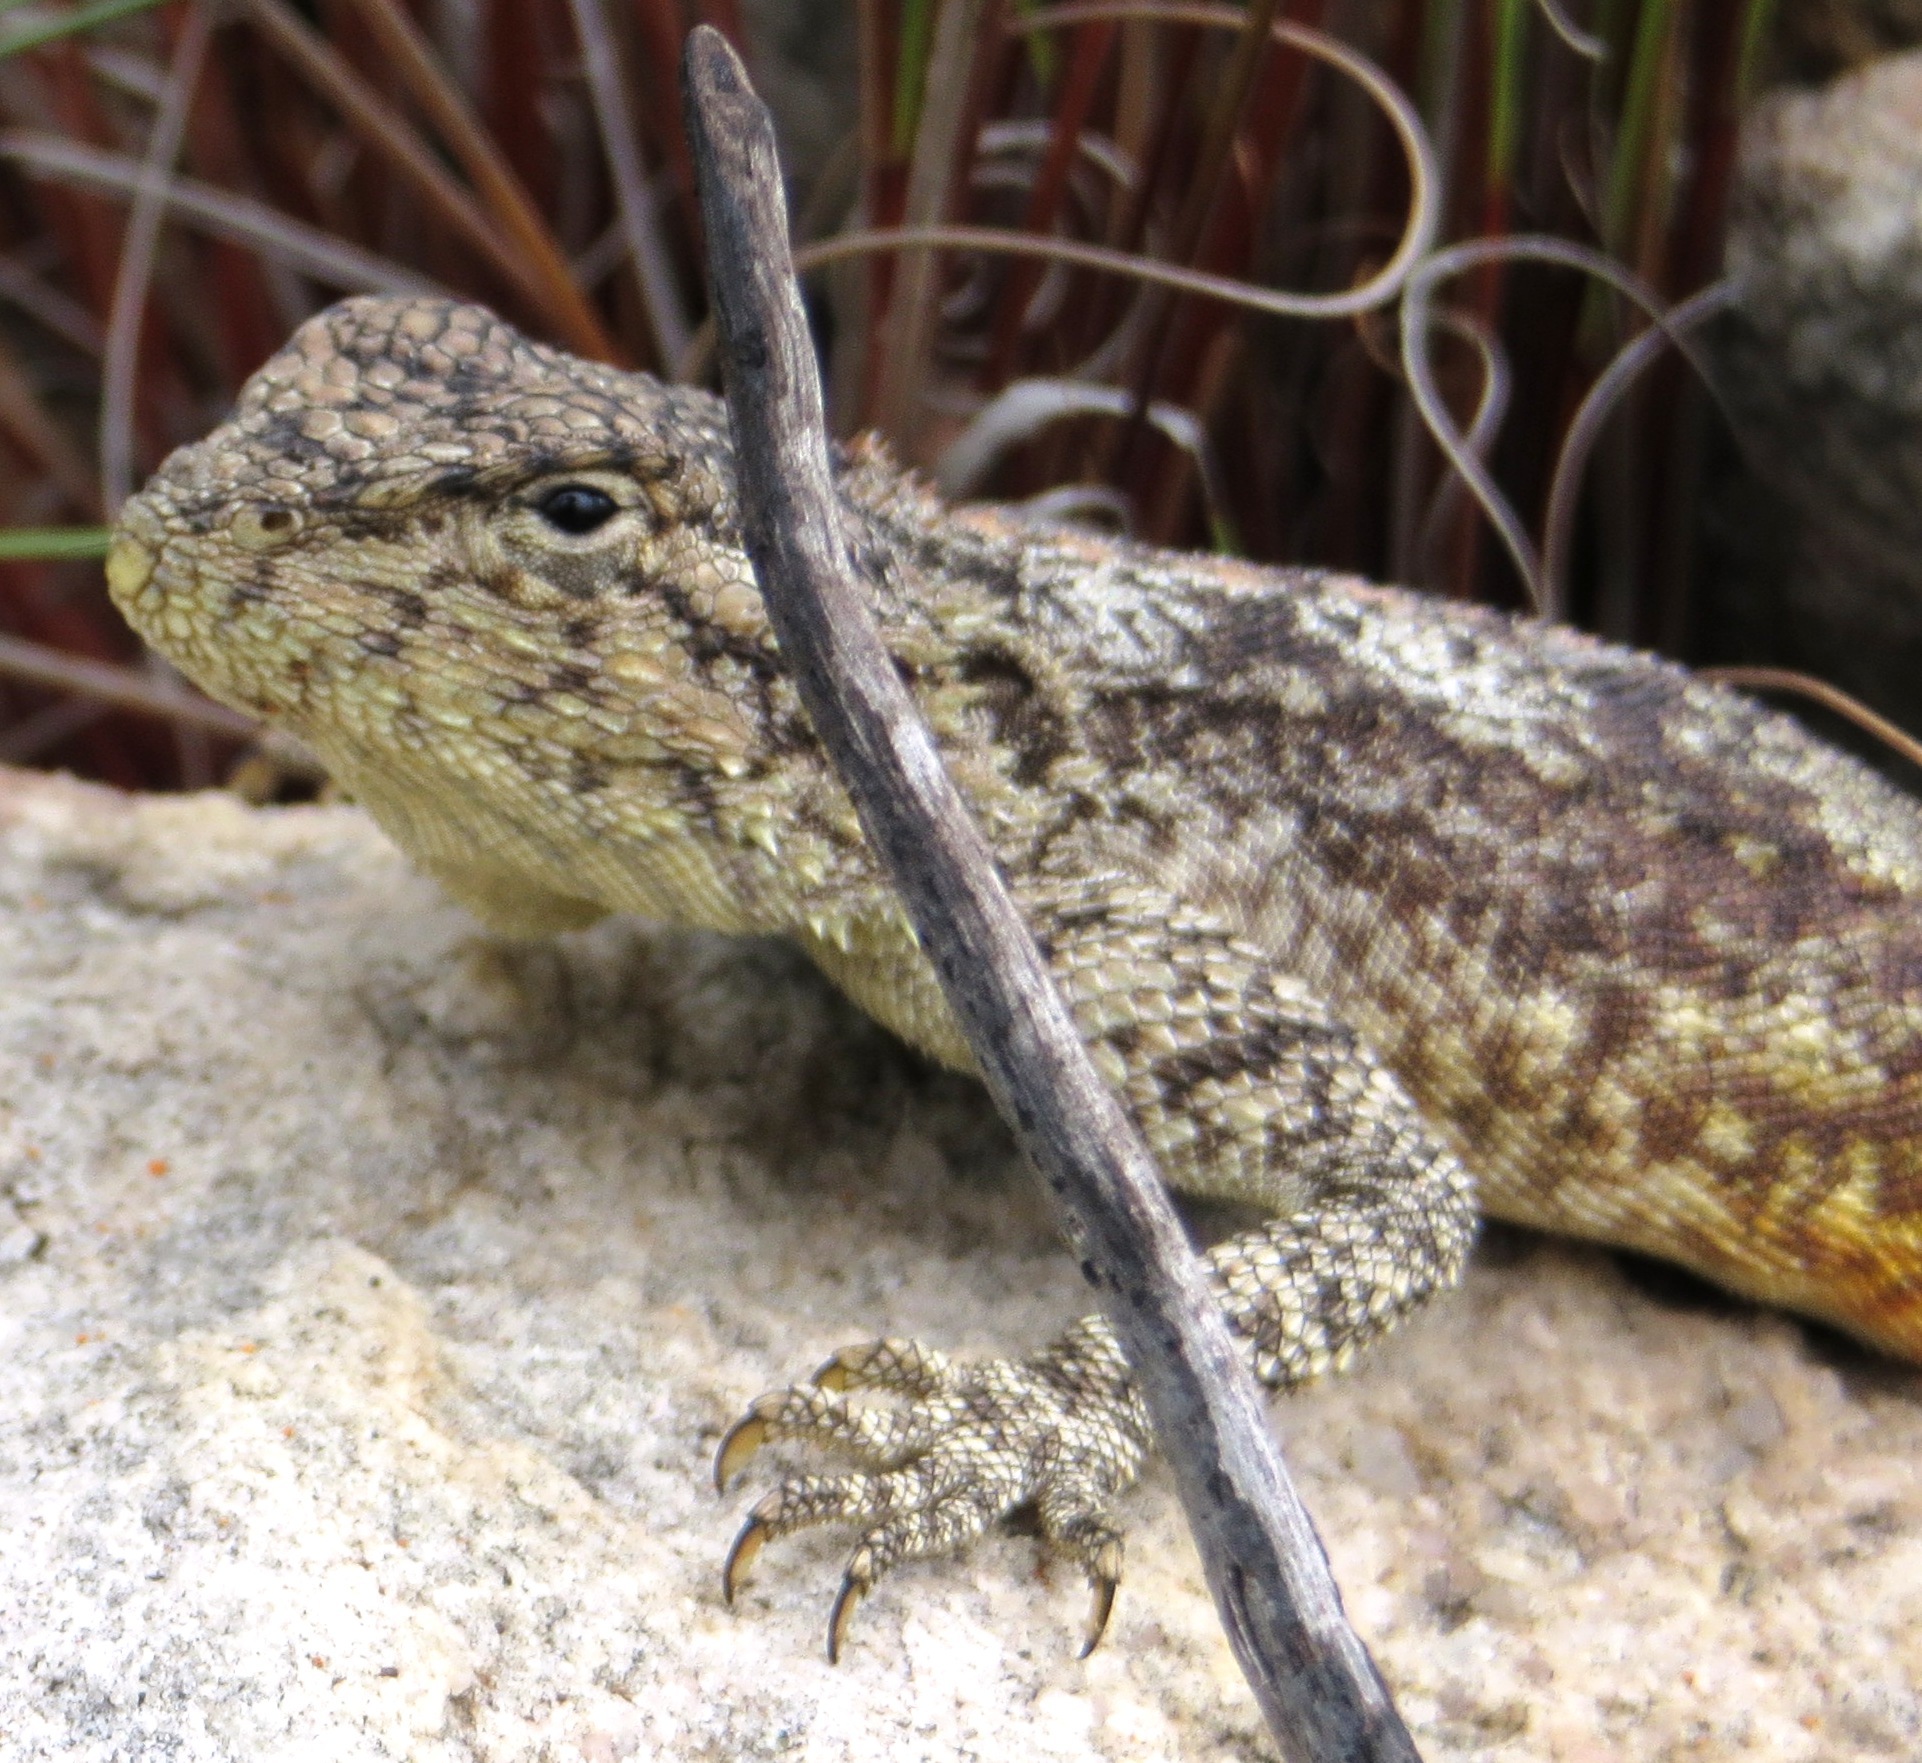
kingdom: Animalia
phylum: Chordata
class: Squamata
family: Agamidae
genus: Agama
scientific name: Agama atra
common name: Southern african rock agama
